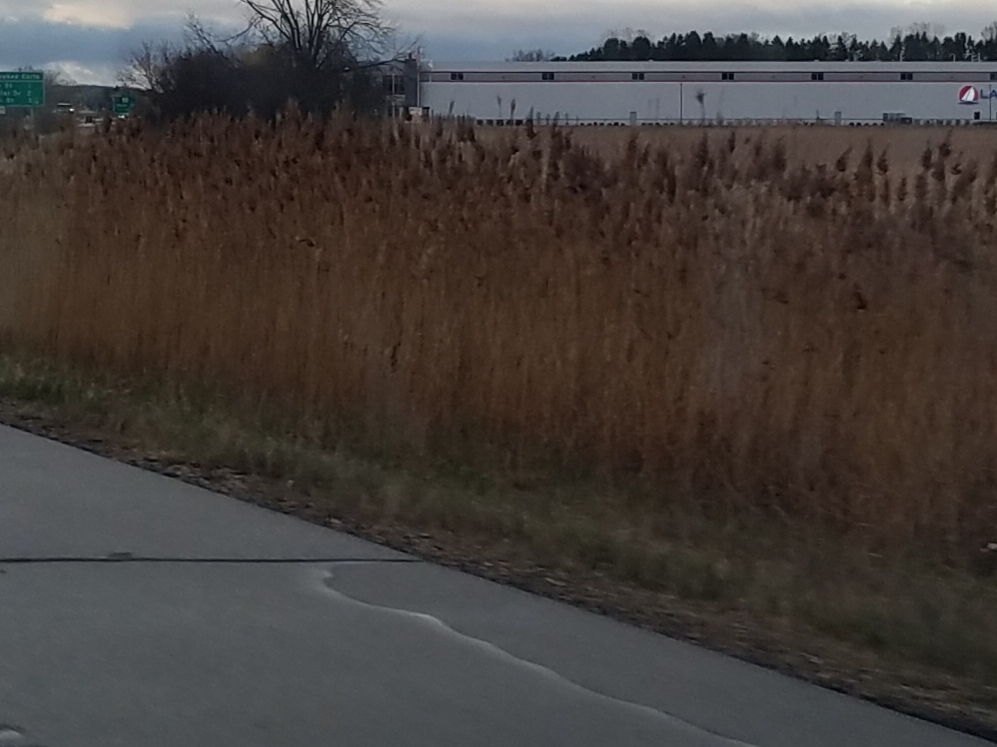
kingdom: Plantae
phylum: Tracheophyta
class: Liliopsida
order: Poales
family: Poaceae
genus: Phragmites
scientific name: Phragmites australis
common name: Common reed
